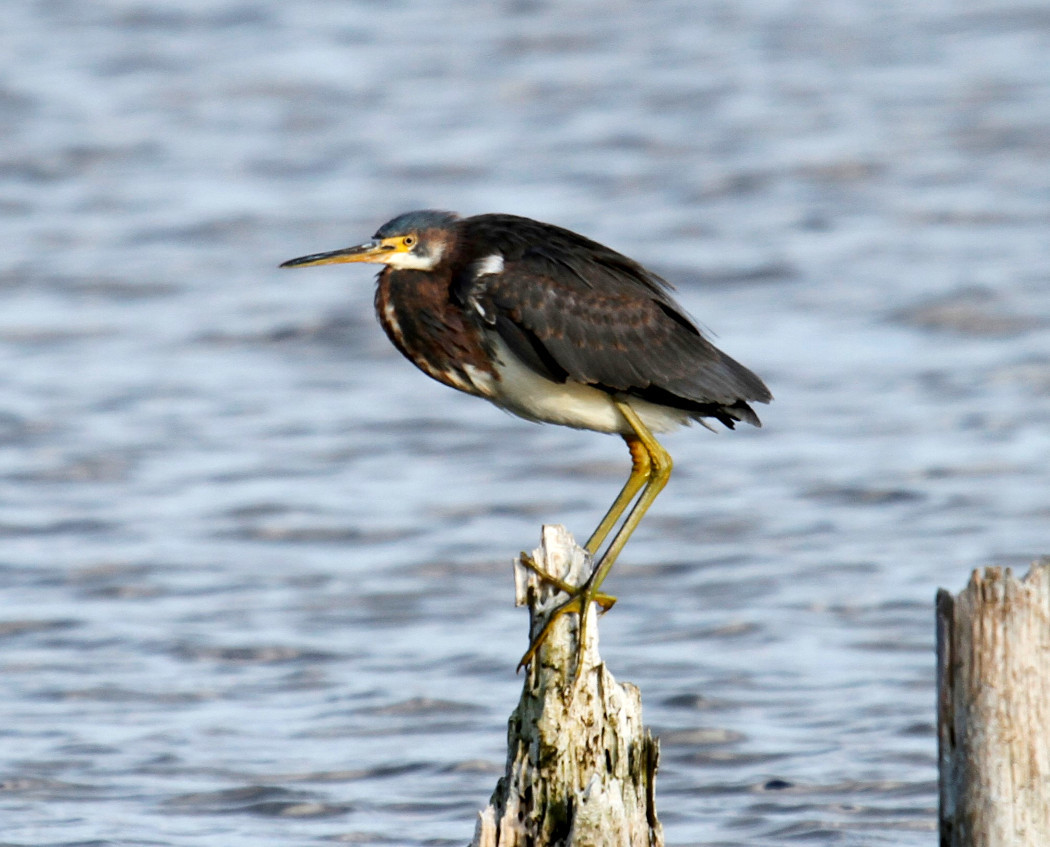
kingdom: Animalia
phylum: Chordata
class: Aves
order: Pelecaniformes
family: Ardeidae
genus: Egretta
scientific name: Egretta tricolor
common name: Tricolored heron
